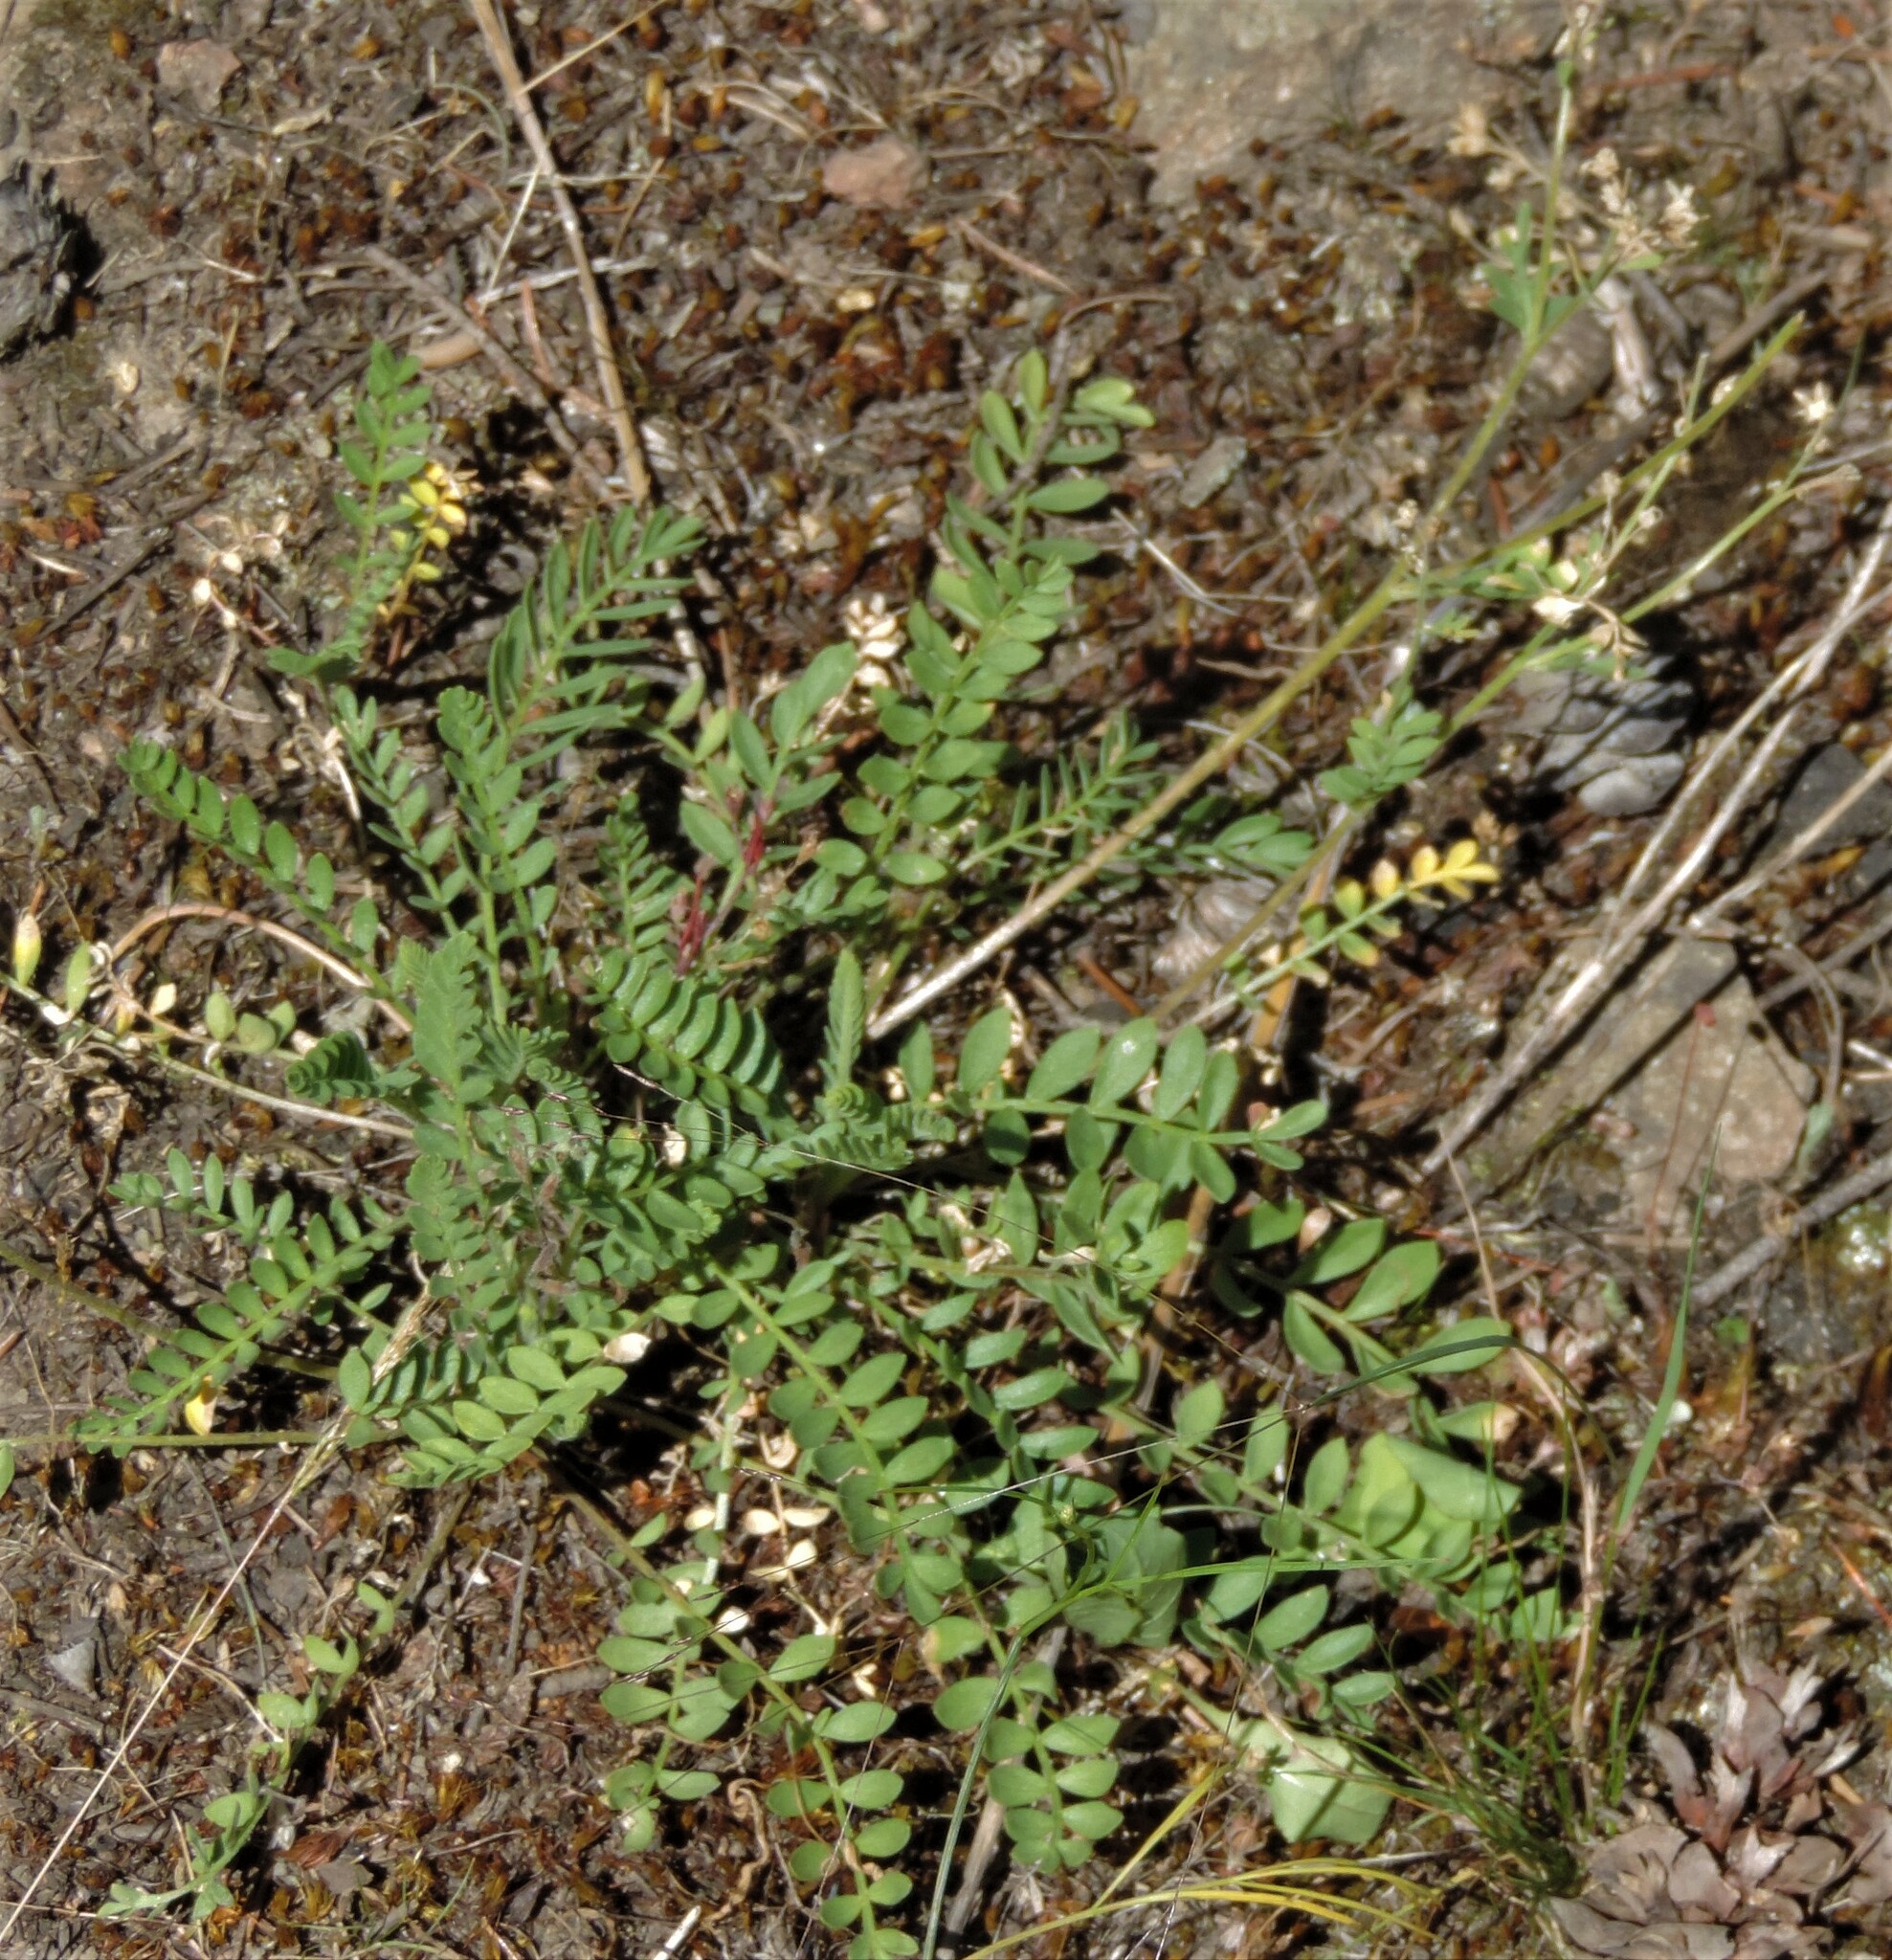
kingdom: Plantae
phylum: Tracheophyta
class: Magnoliopsida
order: Ericales
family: Polemoniaceae
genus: Polemonium
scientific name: Polemonium pulcherrimum
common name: Short jacob's-ladder
